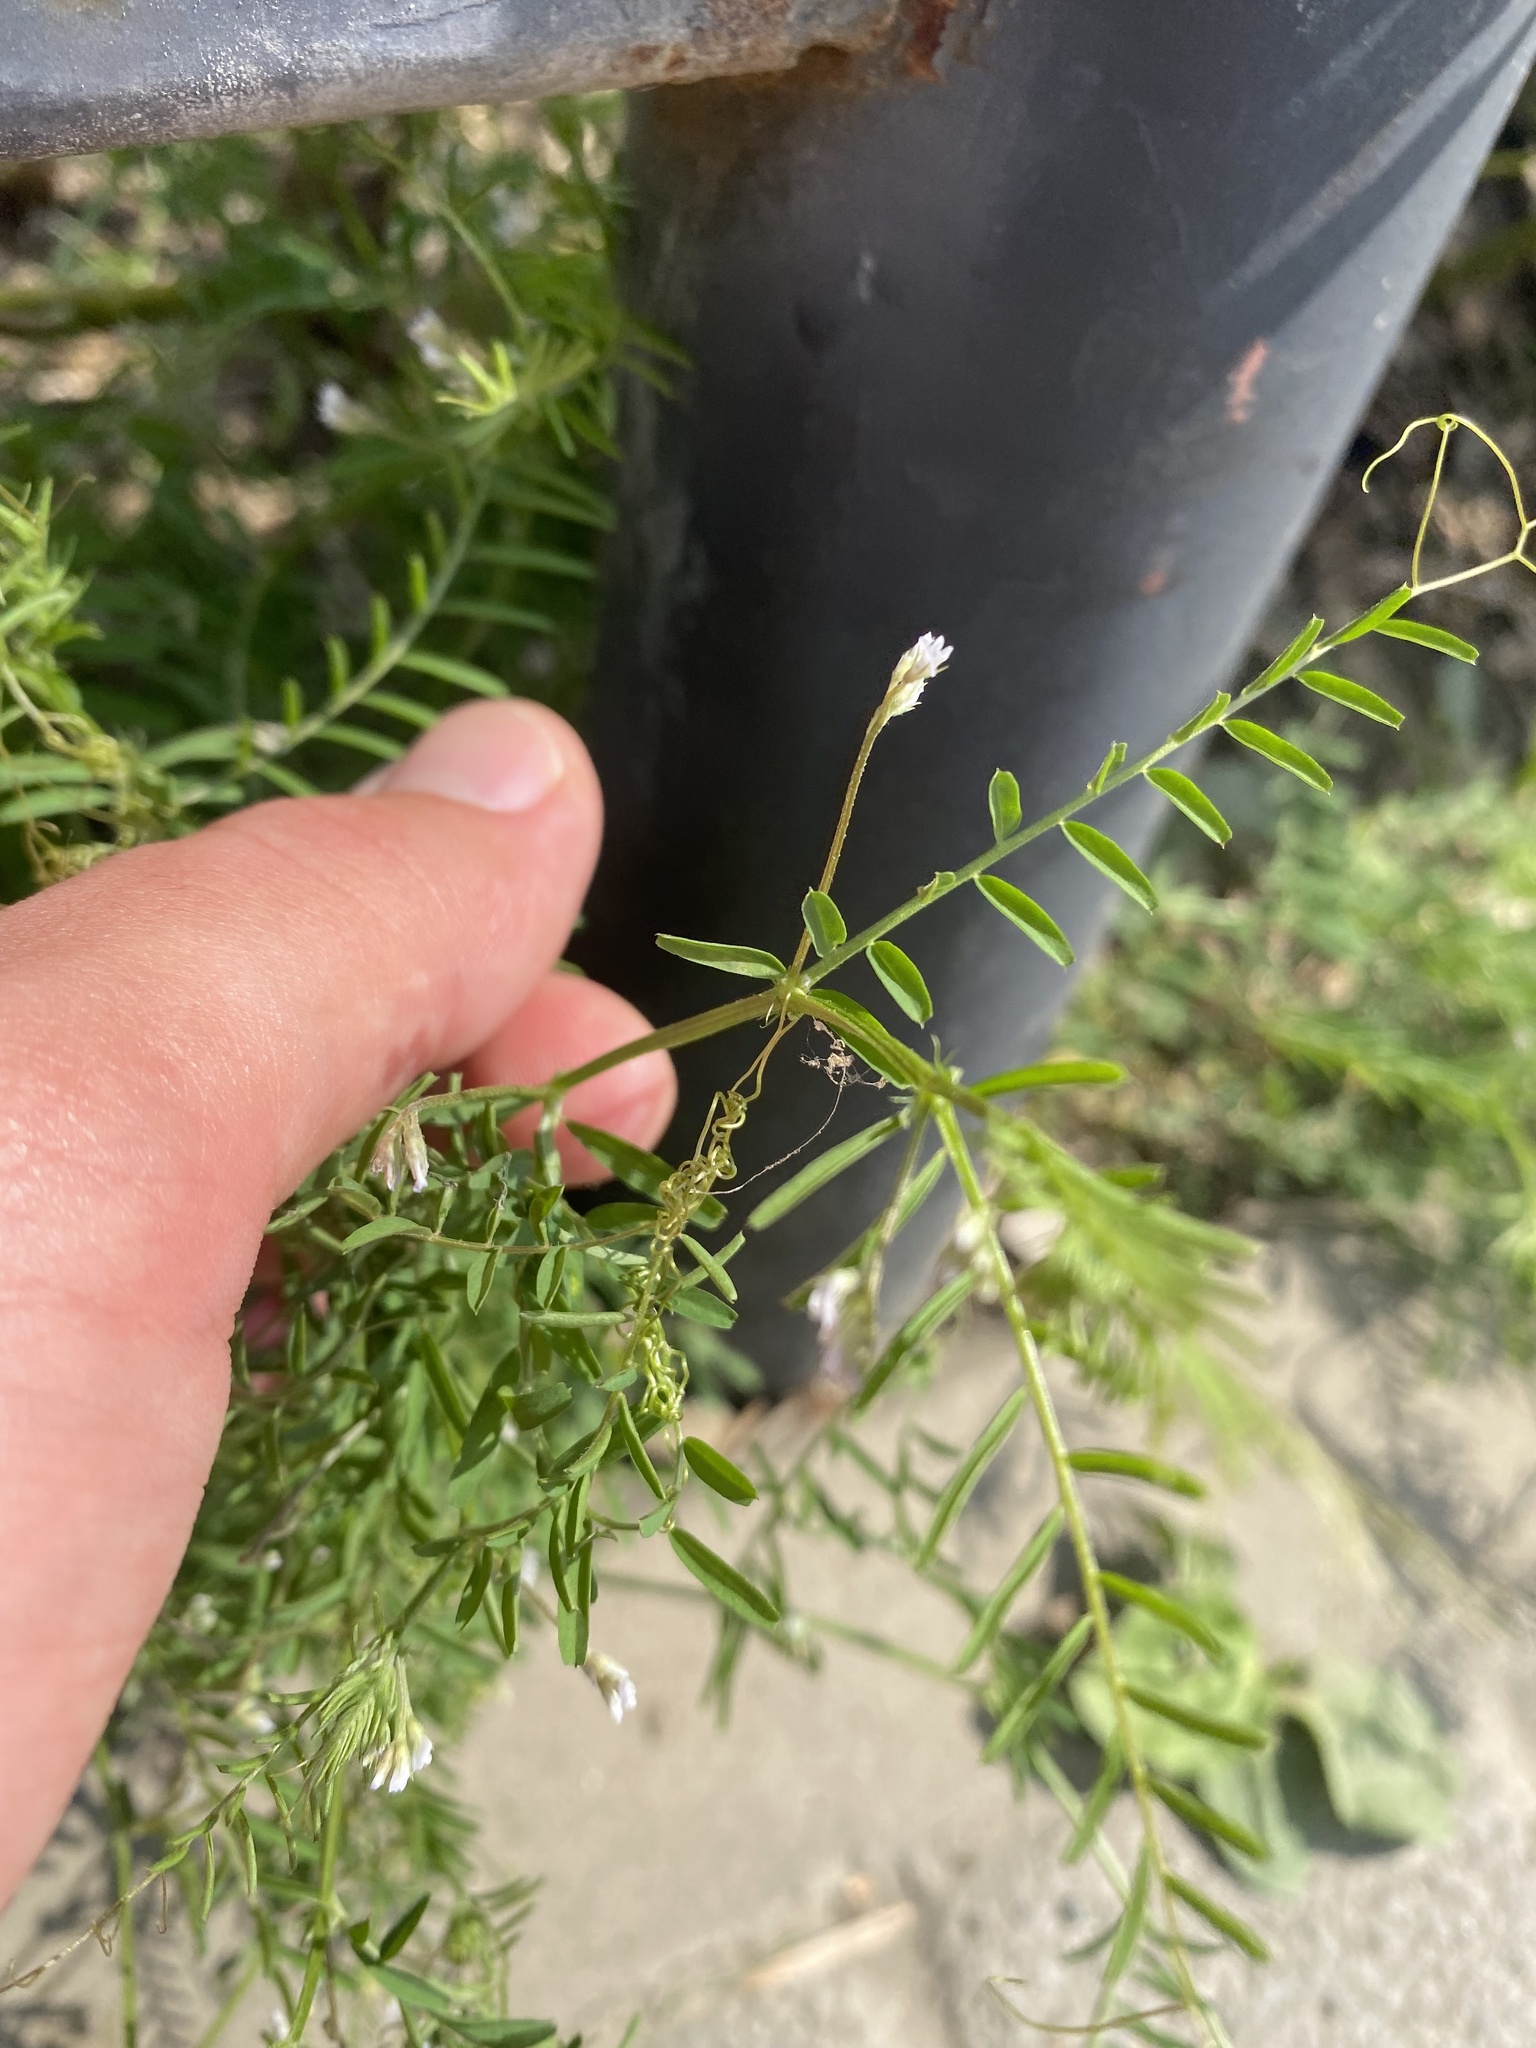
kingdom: Plantae
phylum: Tracheophyta
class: Magnoliopsida
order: Fabales
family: Fabaceae
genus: Vicia
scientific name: Vicia hirsuta
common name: Tiny vetch
